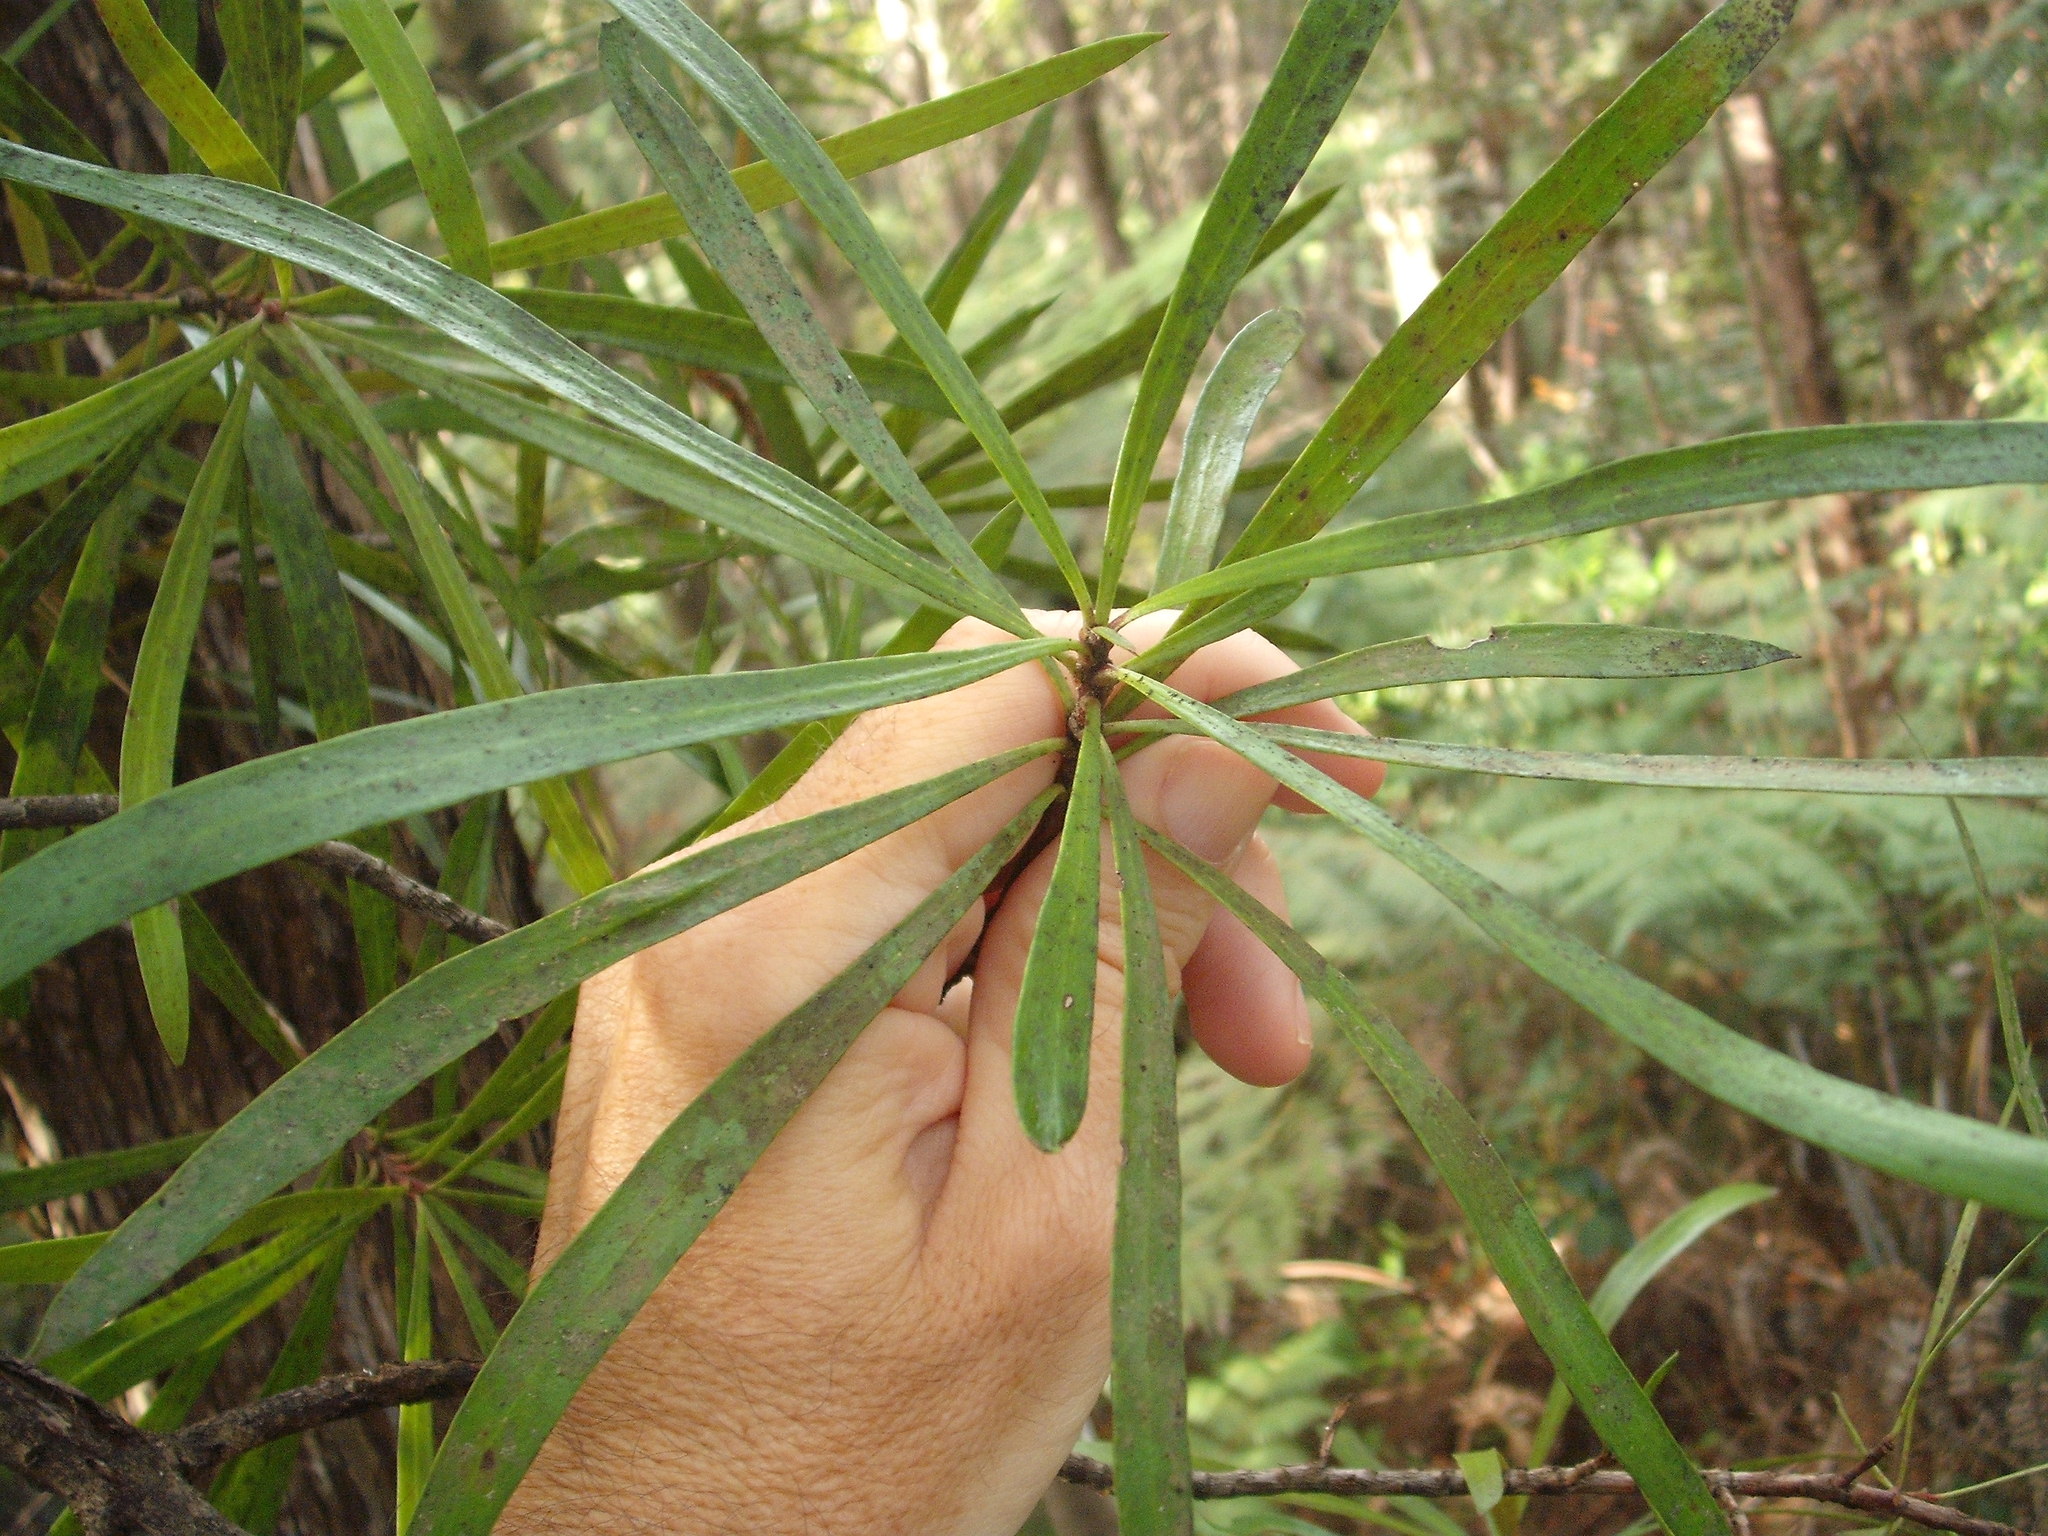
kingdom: Plantae
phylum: Tracheophyta
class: Magnoliopsida
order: Proteales
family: Proteaceae
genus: Toronia
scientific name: Toronia toru
